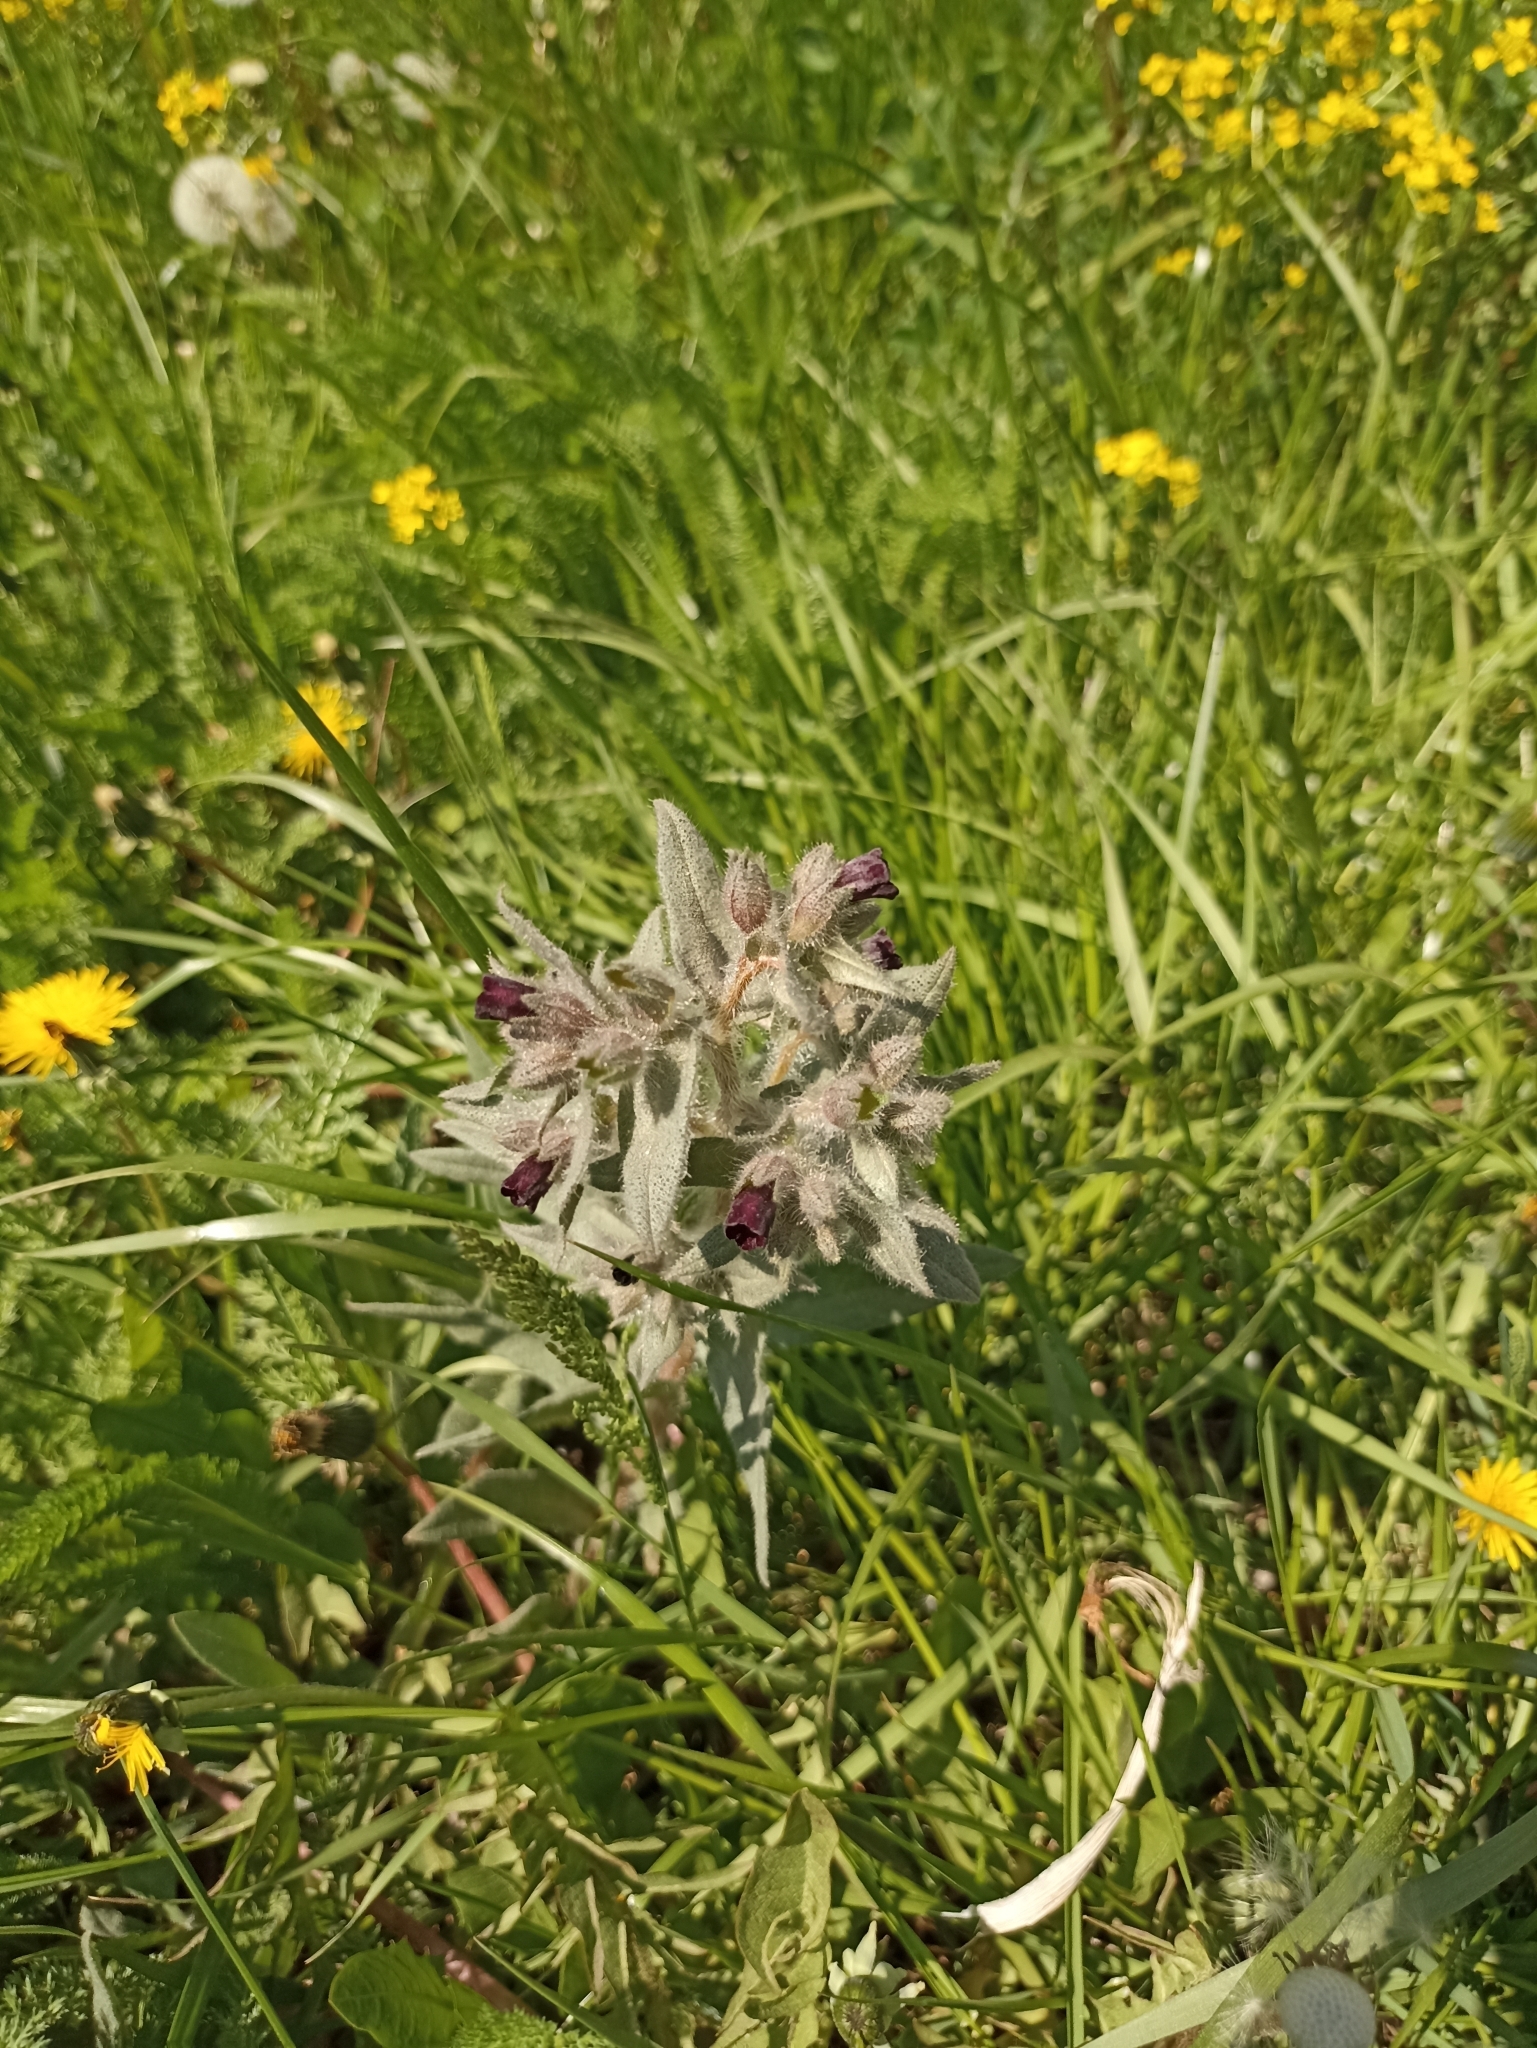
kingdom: Plantae
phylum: Tracheophyta
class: Magnoliopsida
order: Boraginales
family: Boraginaceae
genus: Nonea
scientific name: Nonea pulla
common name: Brown nonea
